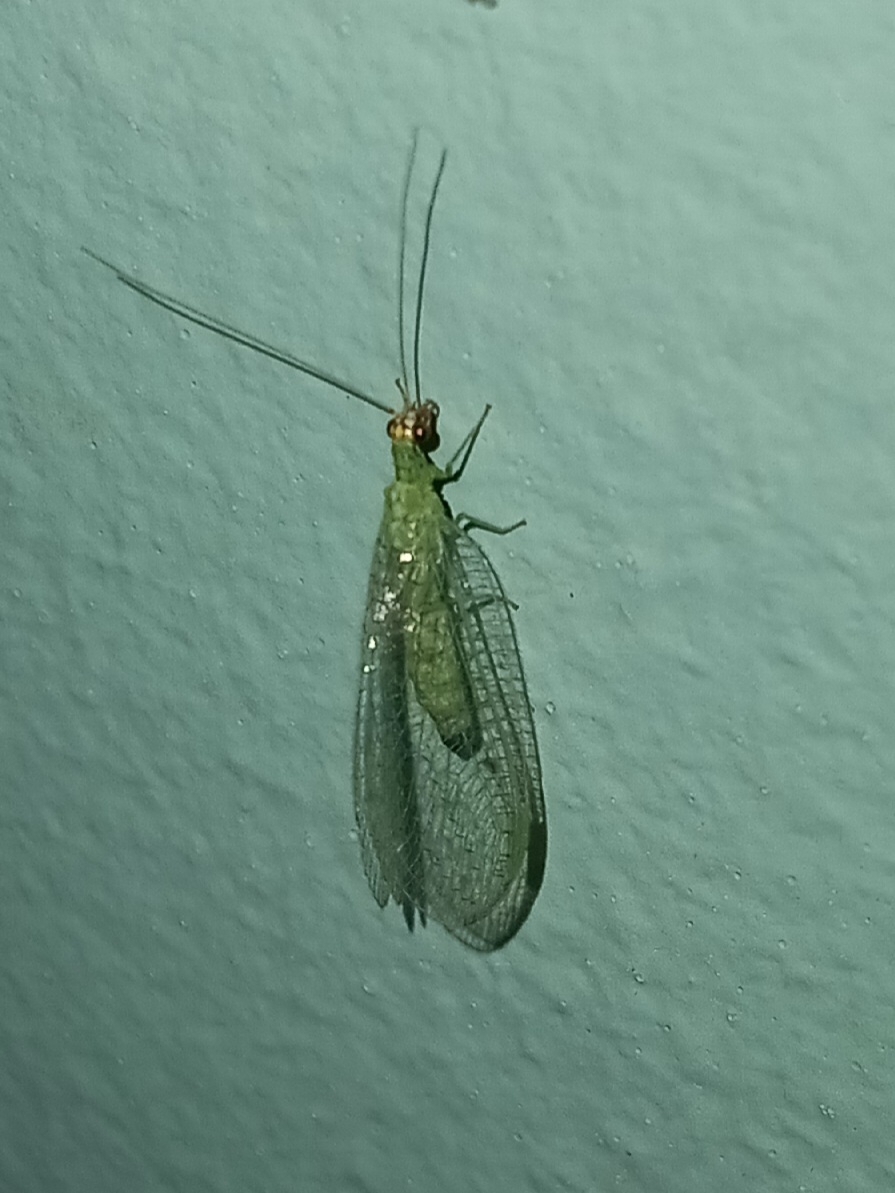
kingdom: Animalia
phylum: Arthropoda
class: Insecta
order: Neuroptera
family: Chrysopidae
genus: Chrysopa
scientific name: Chrysopa oculata
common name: Golden-eyed lacewing
